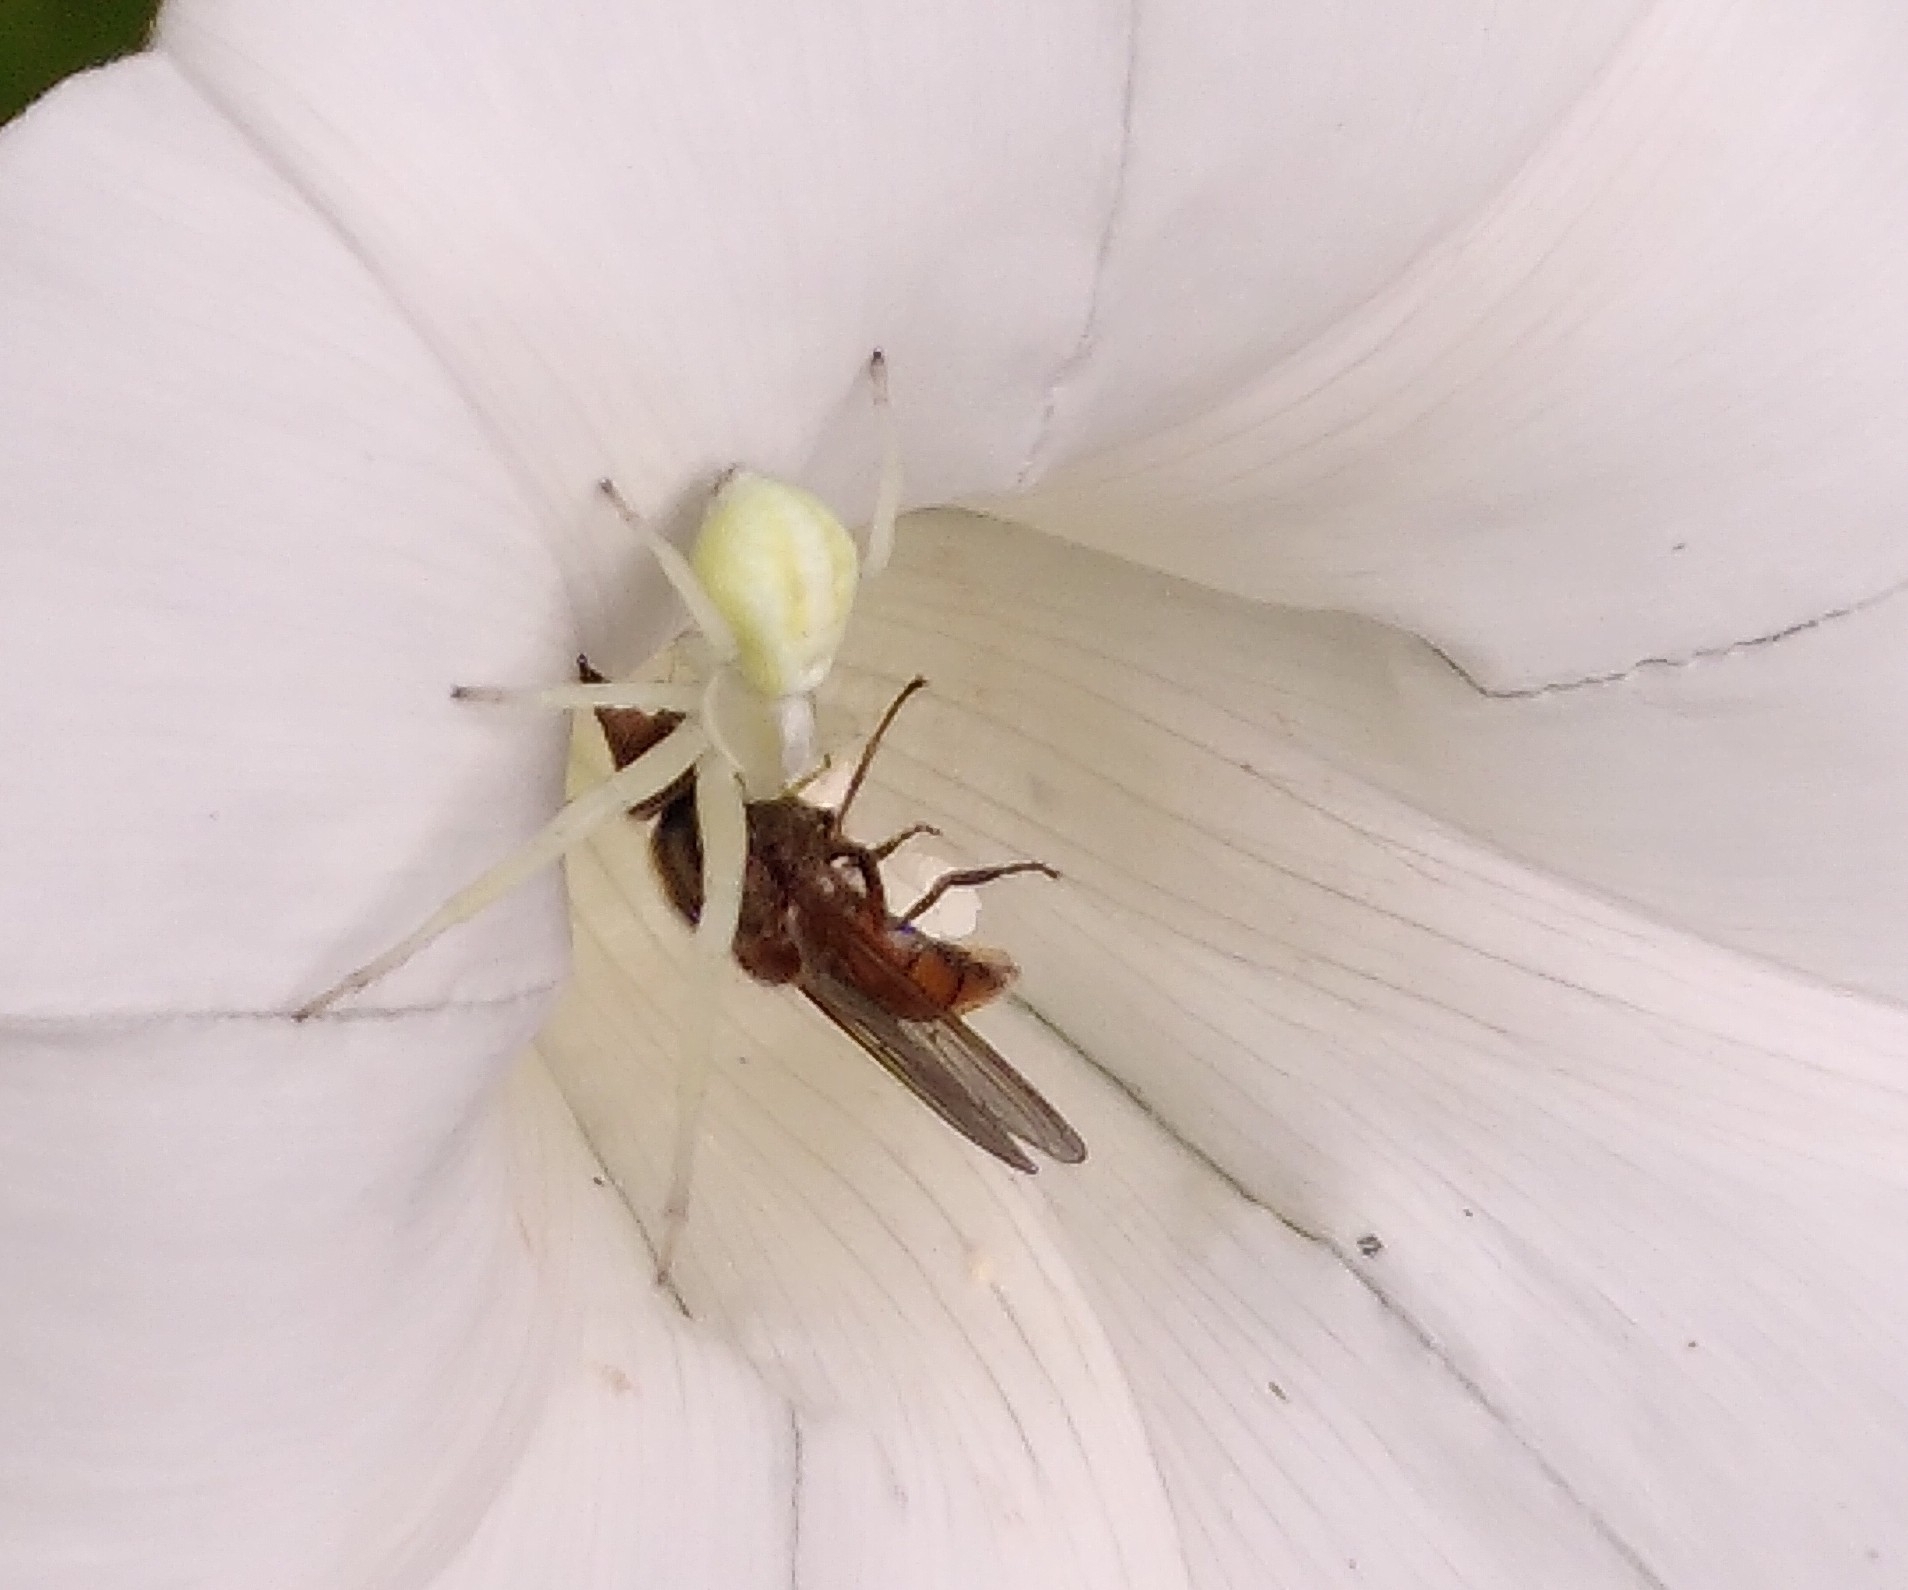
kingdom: Animalia
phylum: Arthropoda
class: Arachnida
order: Araneae
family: Thomisidae
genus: Misumena
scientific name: Misumena vatia
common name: Goldenrod crab spider
